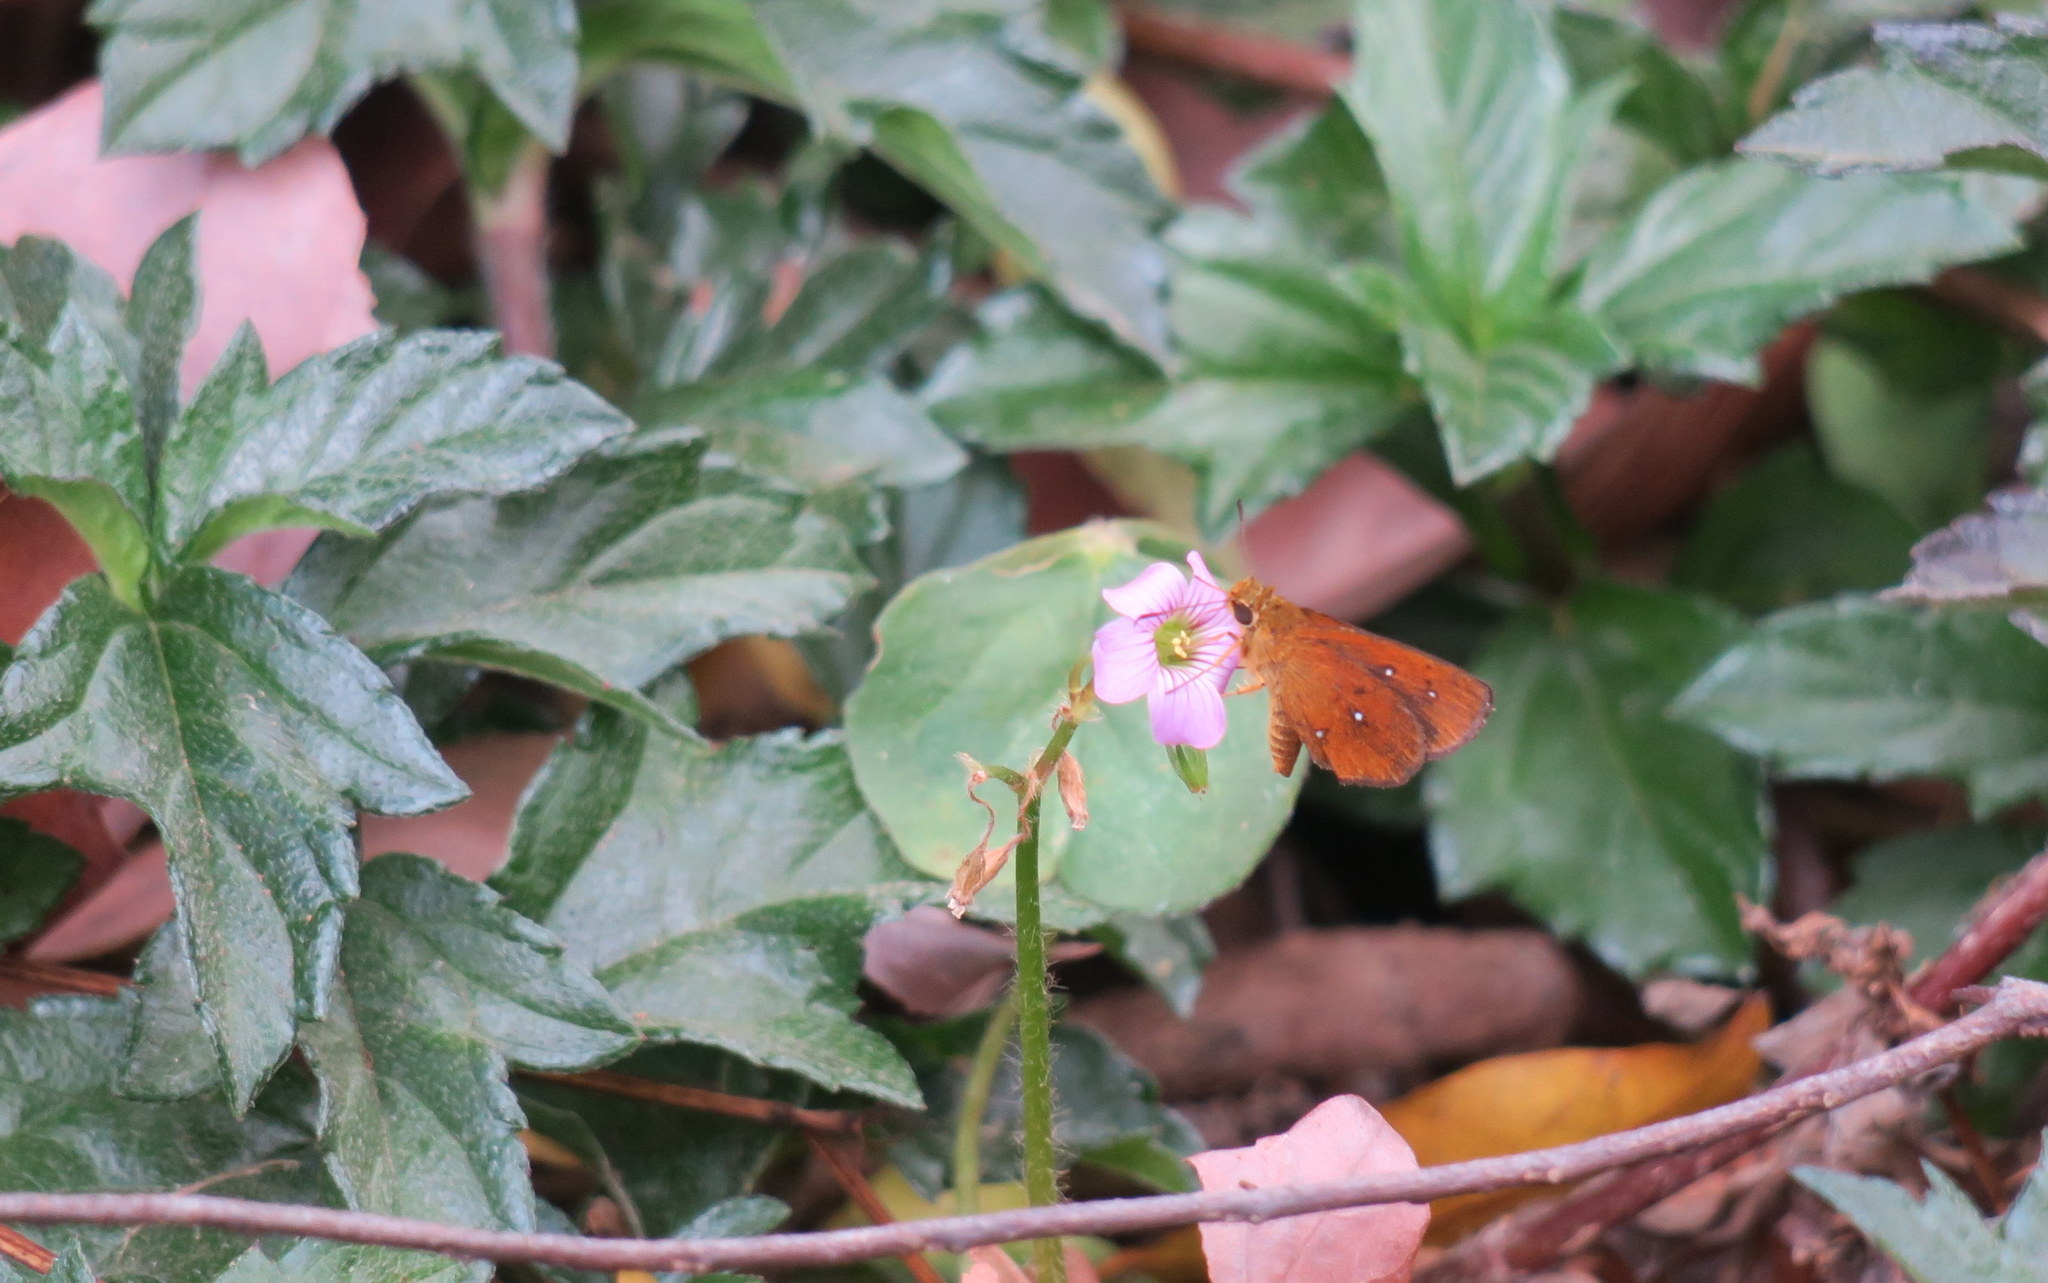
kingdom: Animalia
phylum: Arthropoda
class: Insecta
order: Lepidoptera
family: Hesperiidae
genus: Iambrix
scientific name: Iambrix salsala
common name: Chestnut bob
